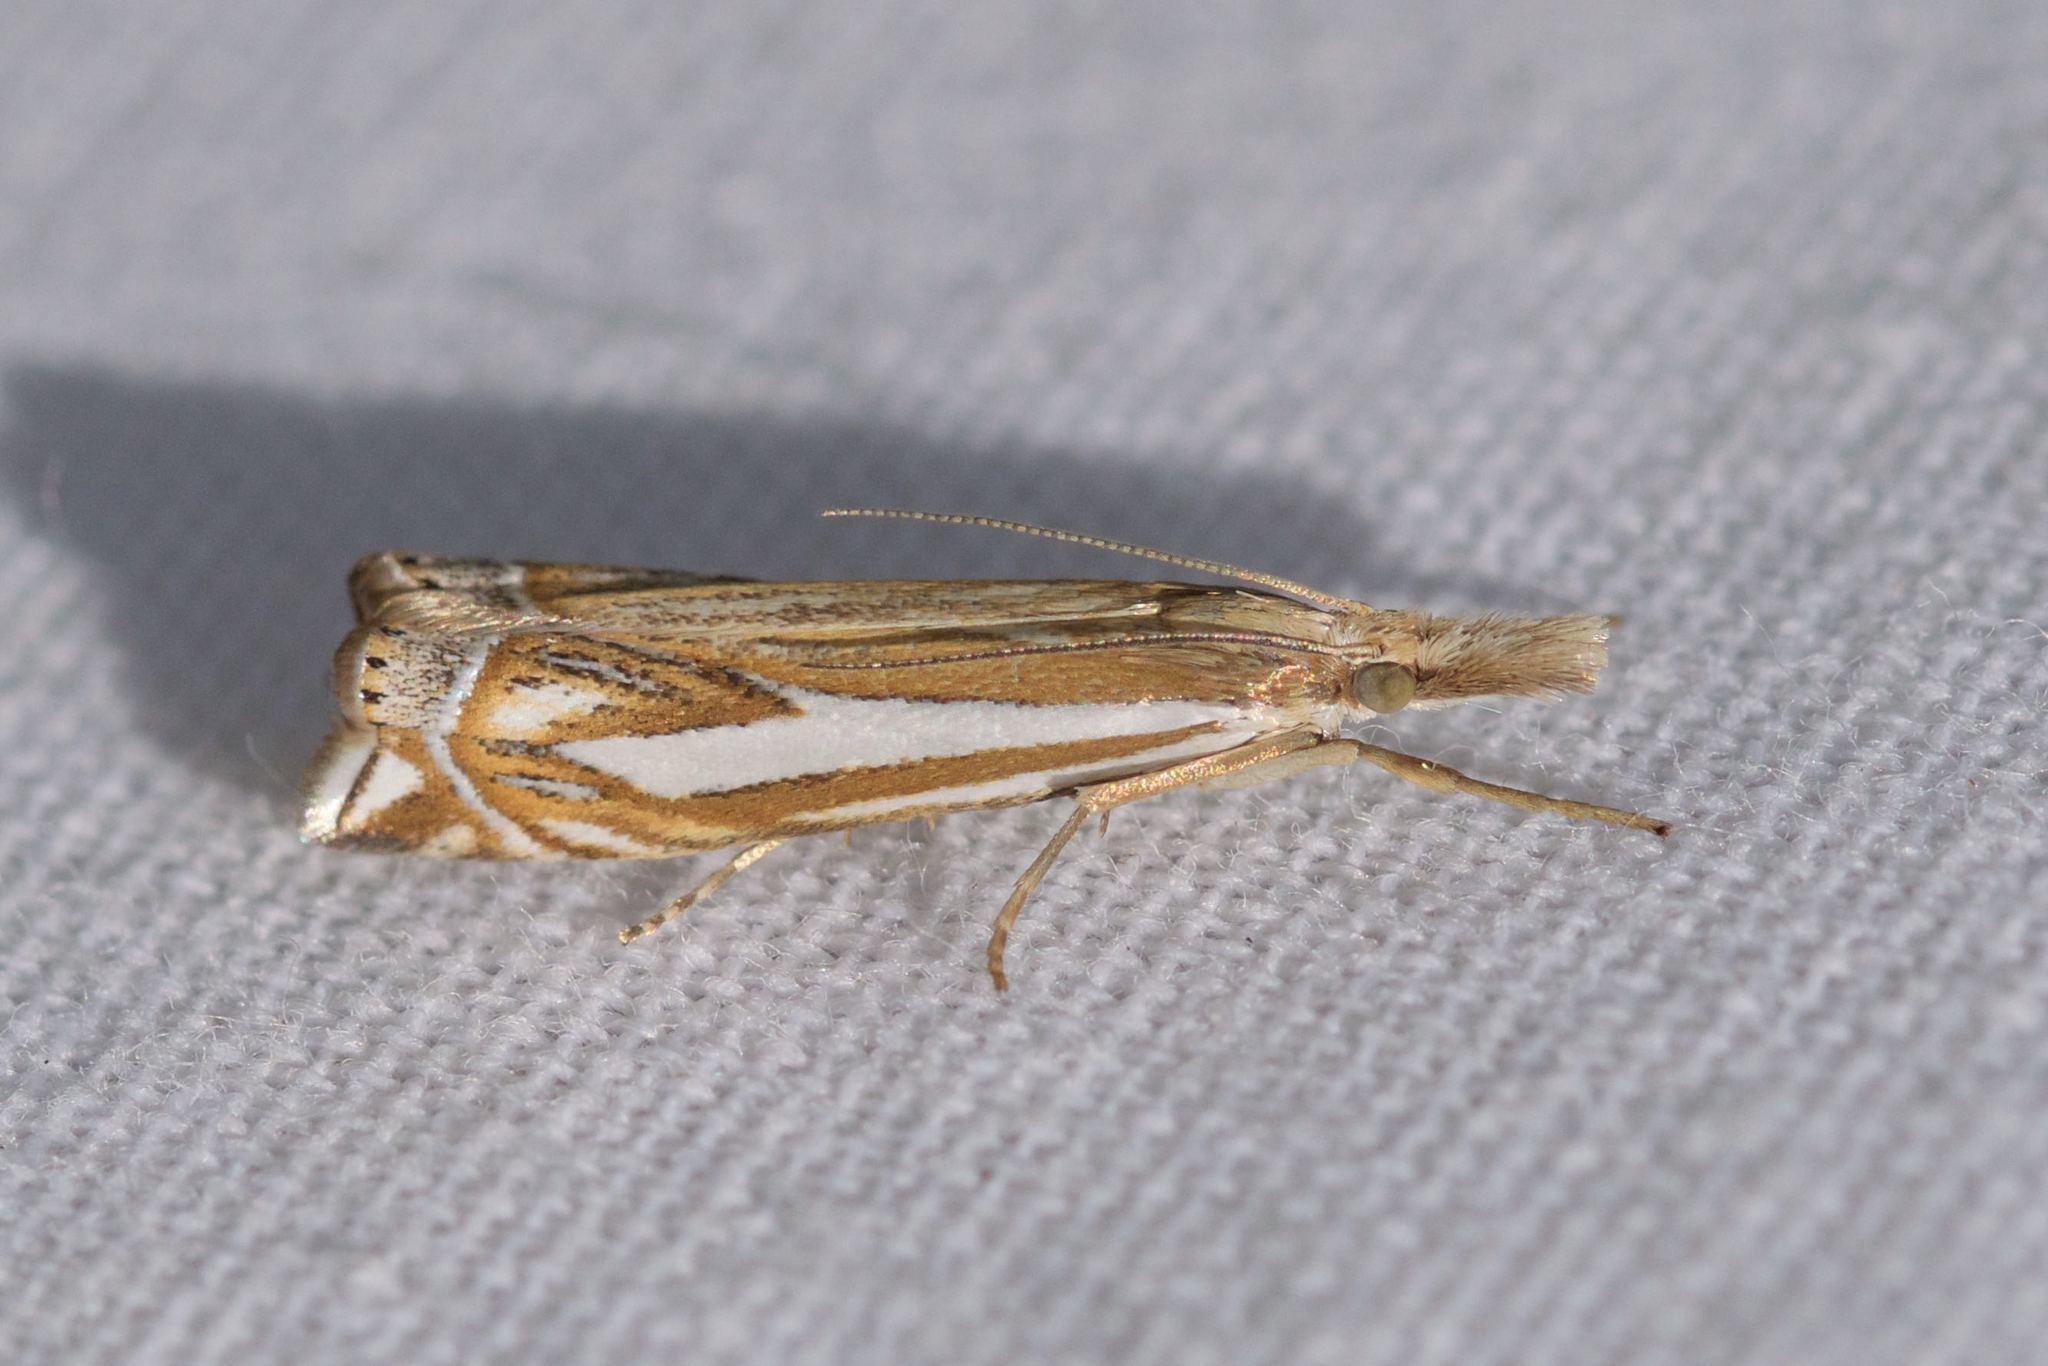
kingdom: Animalia
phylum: Arthropoda
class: Insecta
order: Lepidoptera
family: Crambidae
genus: Crambus
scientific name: Crambus whitmerellus
